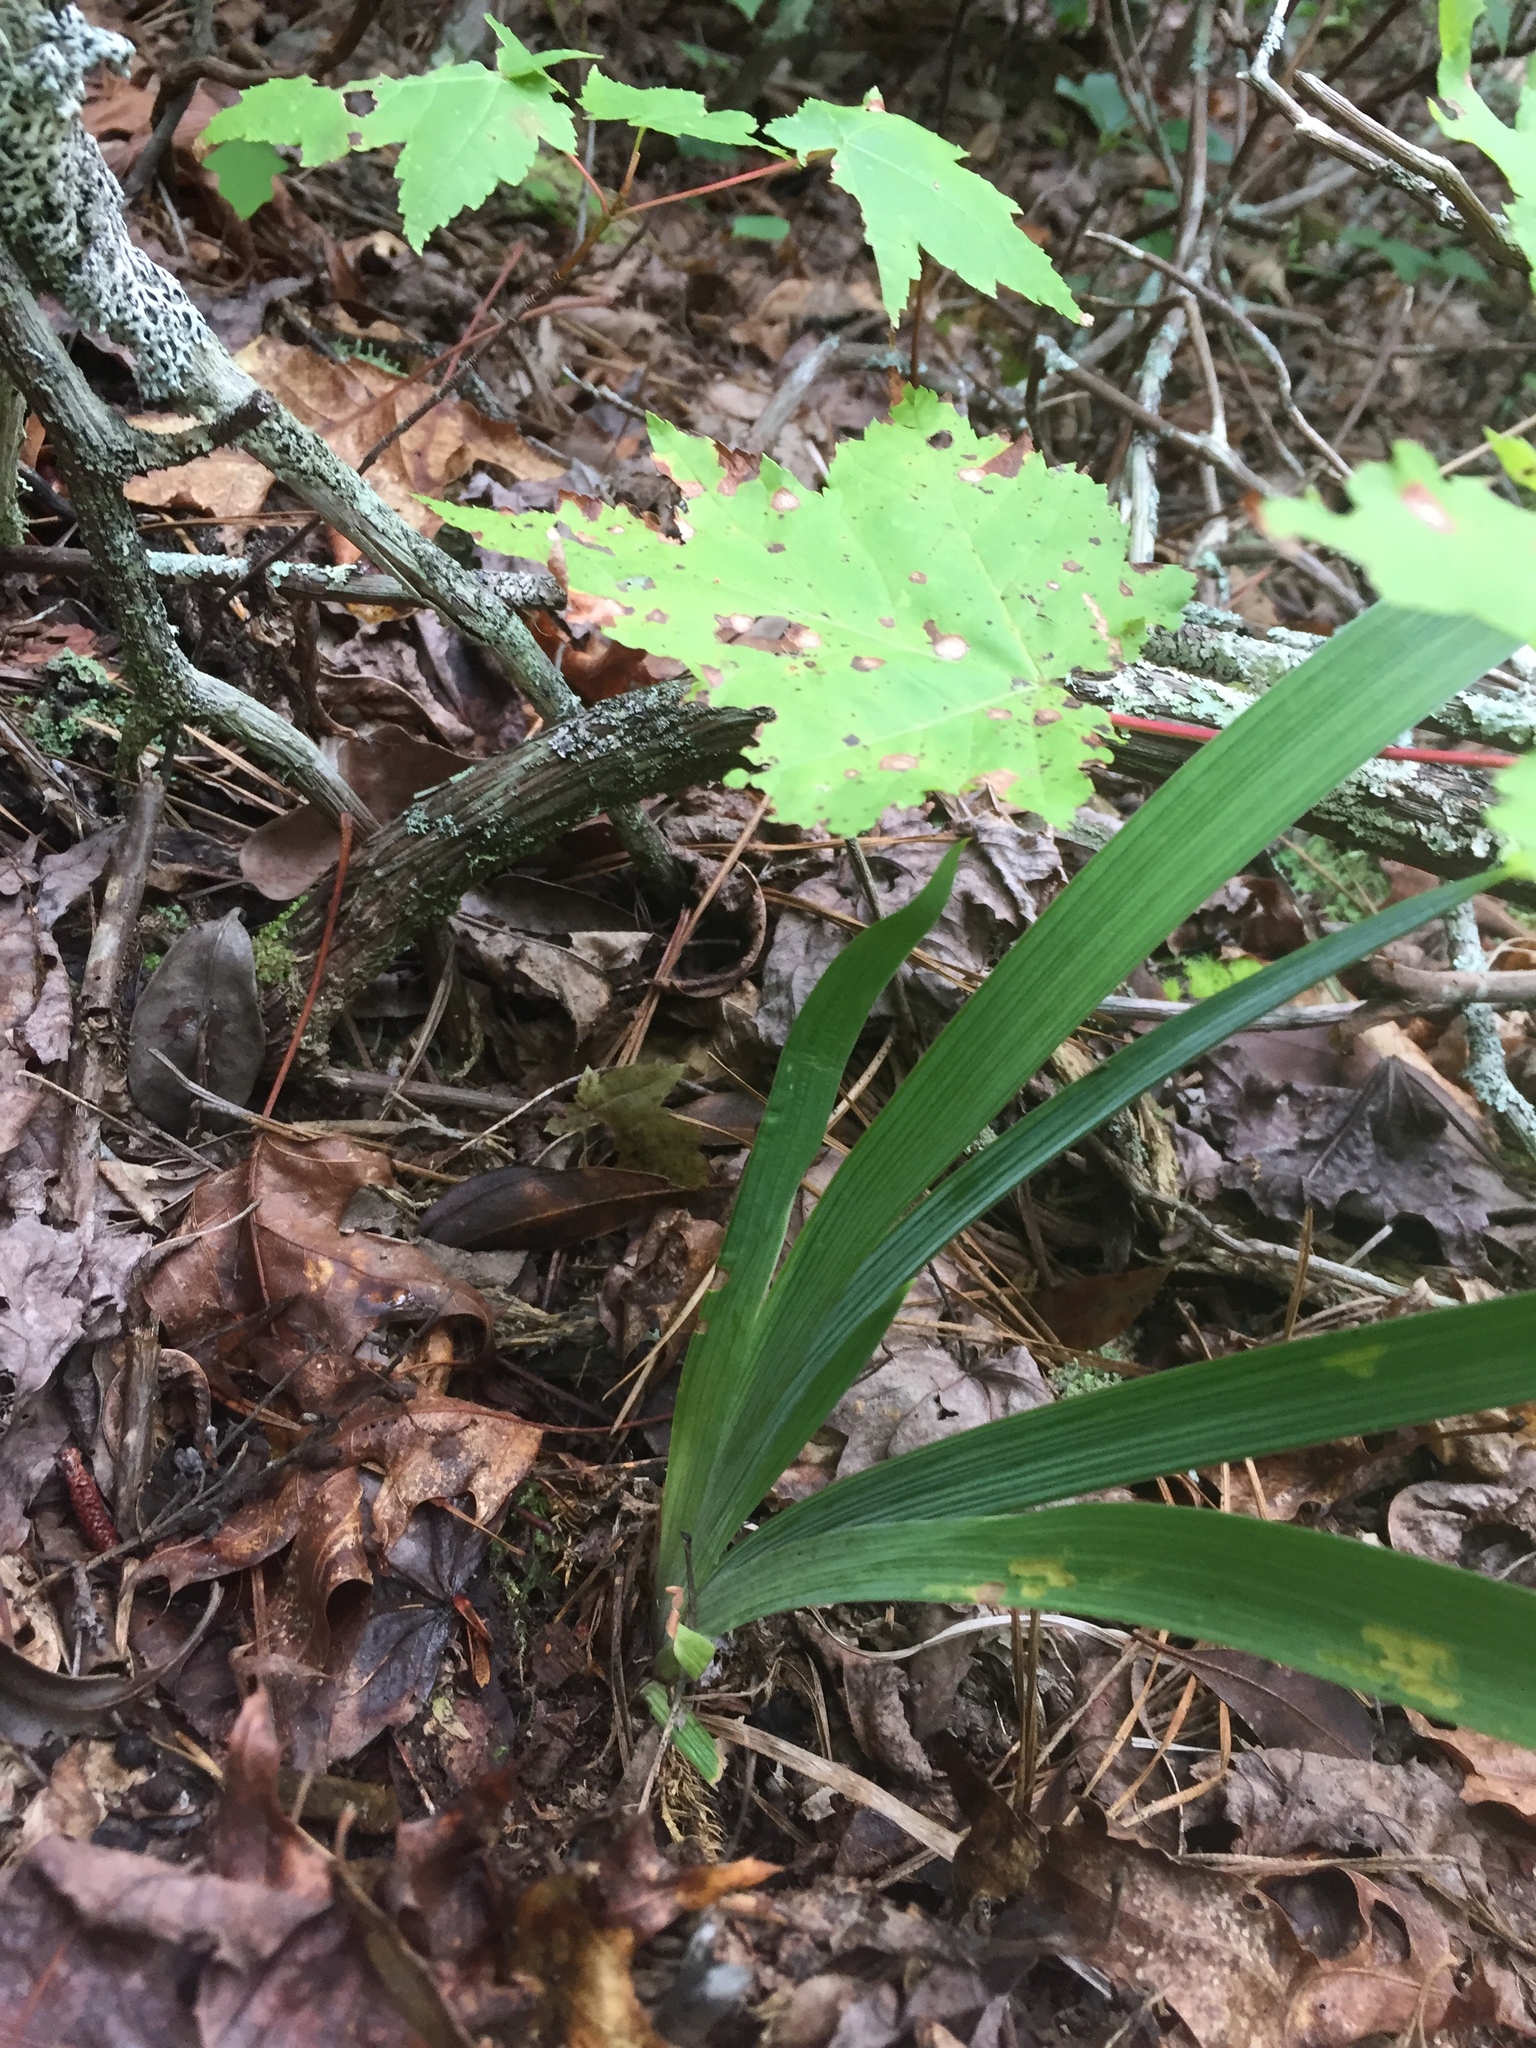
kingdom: Plantae
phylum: Tracheophyta
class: Liliopsida
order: Asparagales
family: Iridaceae
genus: Iris
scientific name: Iris cristata
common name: Crested iris
